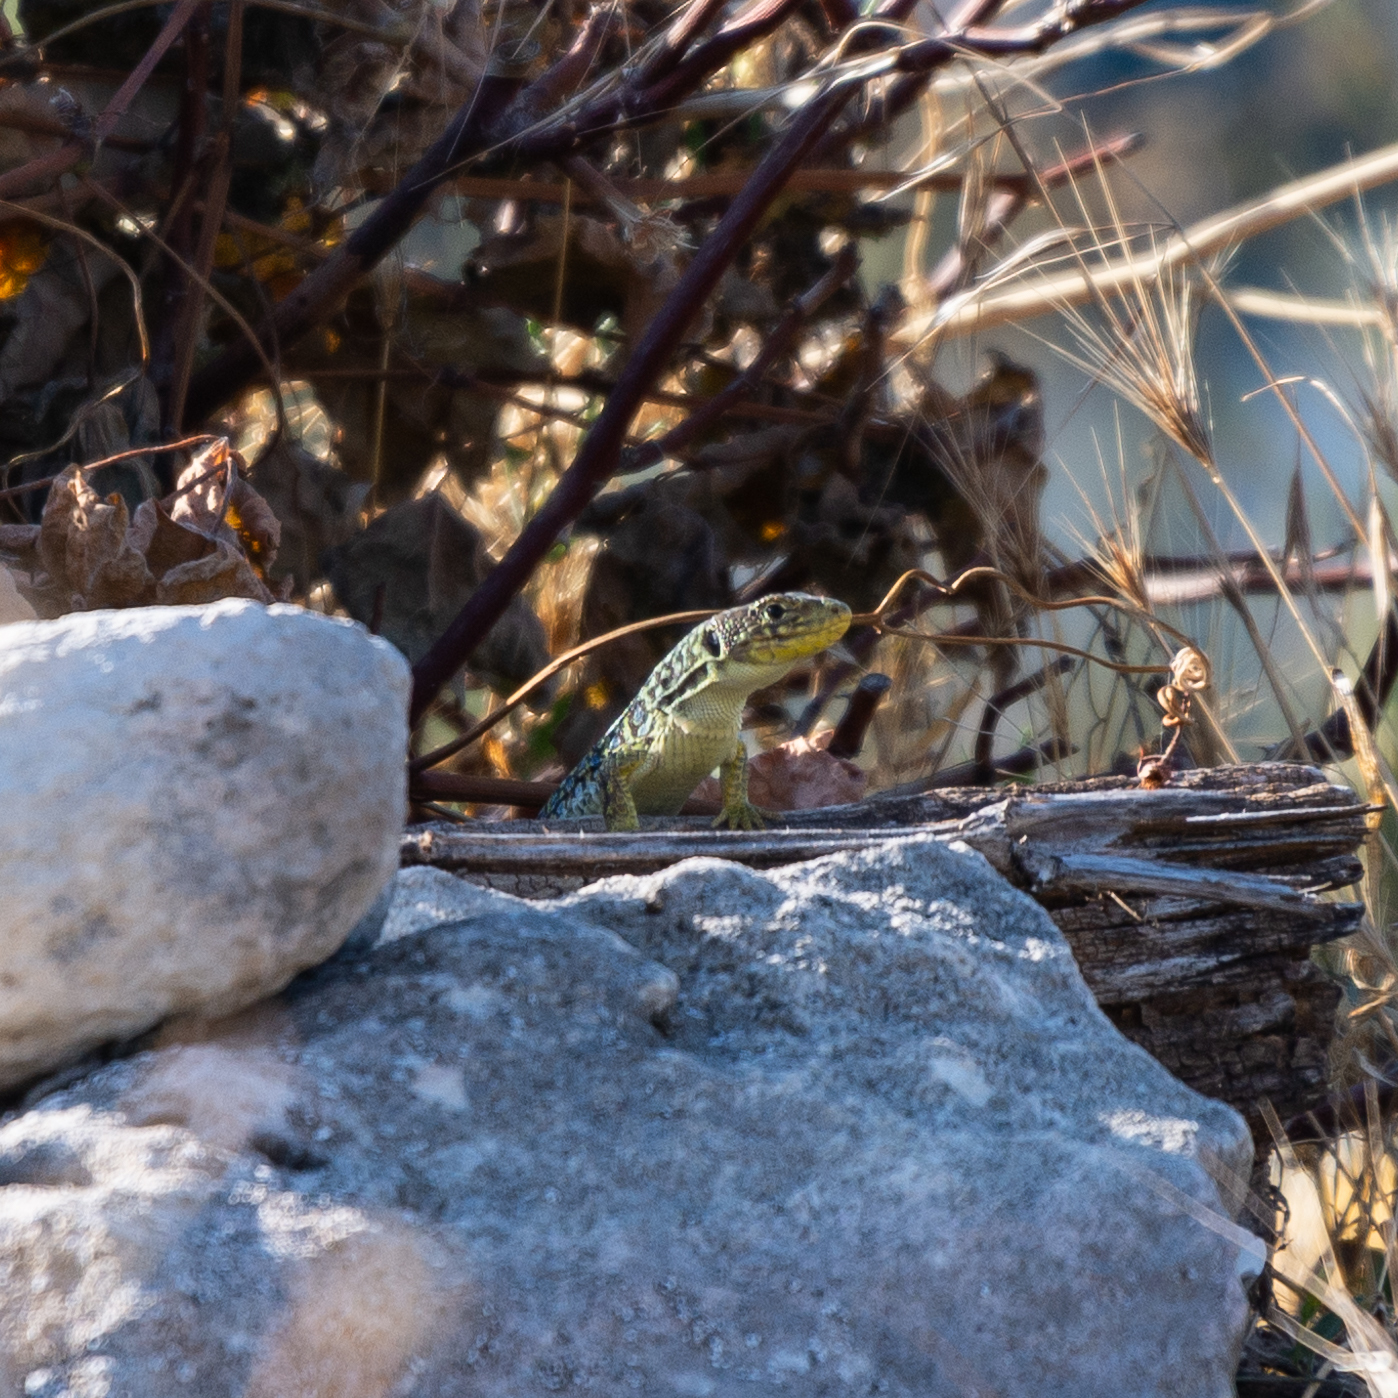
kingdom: Animalia
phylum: Chordata
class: Squamata
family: Lacertidae
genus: Timon
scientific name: Timon lepidus
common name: Ocellated lizard
